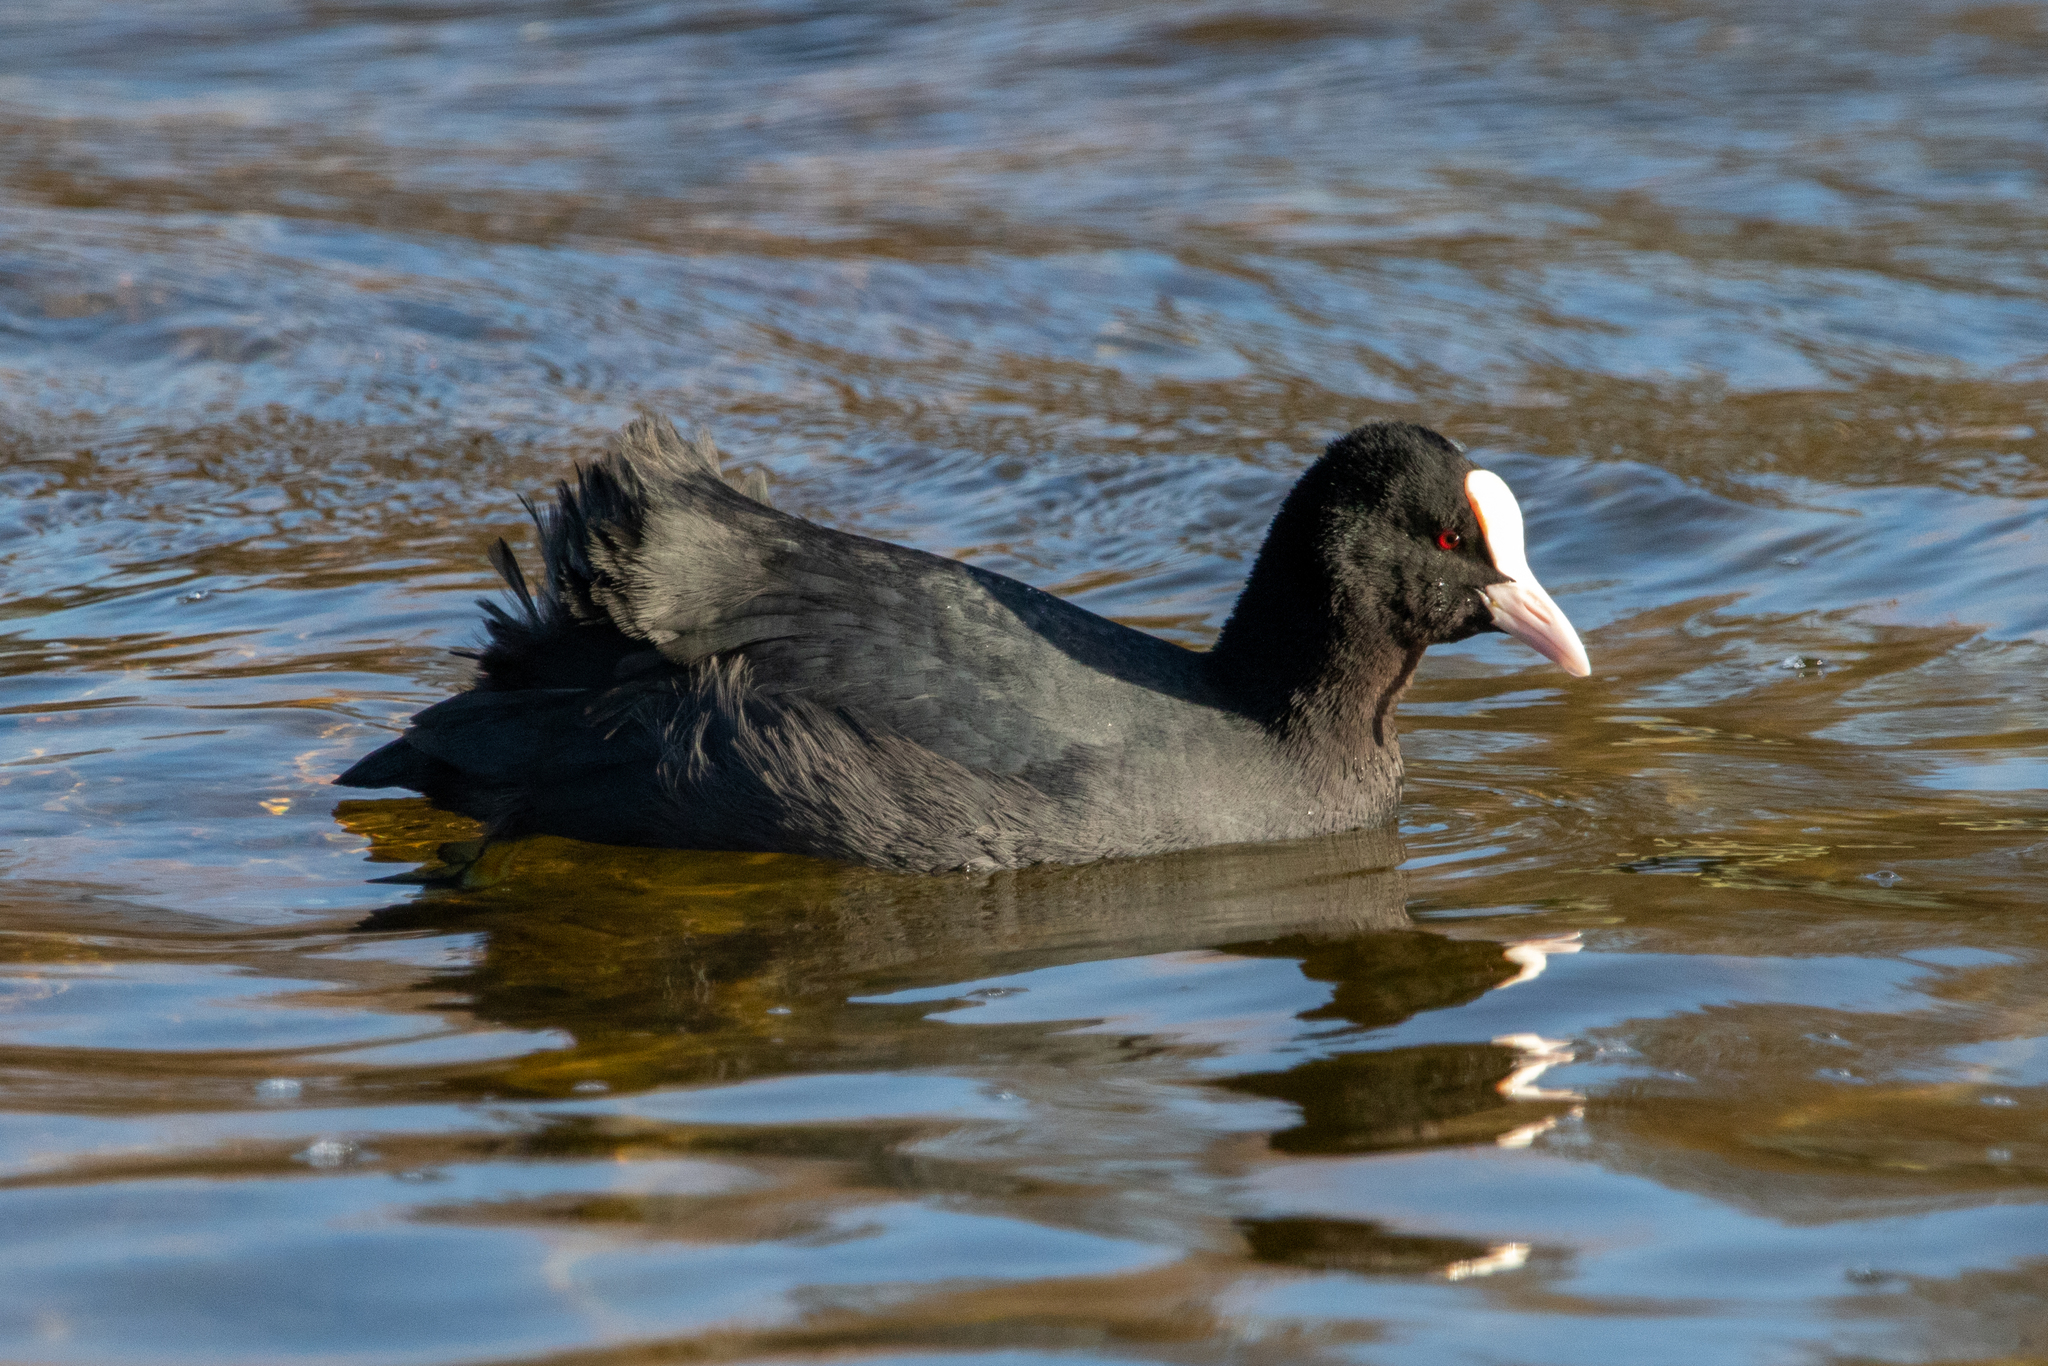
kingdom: Animalia
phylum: Chordata
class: Aves
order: Gruiformes
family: Rallidae
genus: Fulica
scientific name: Fulica atra
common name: Eurasian coot
